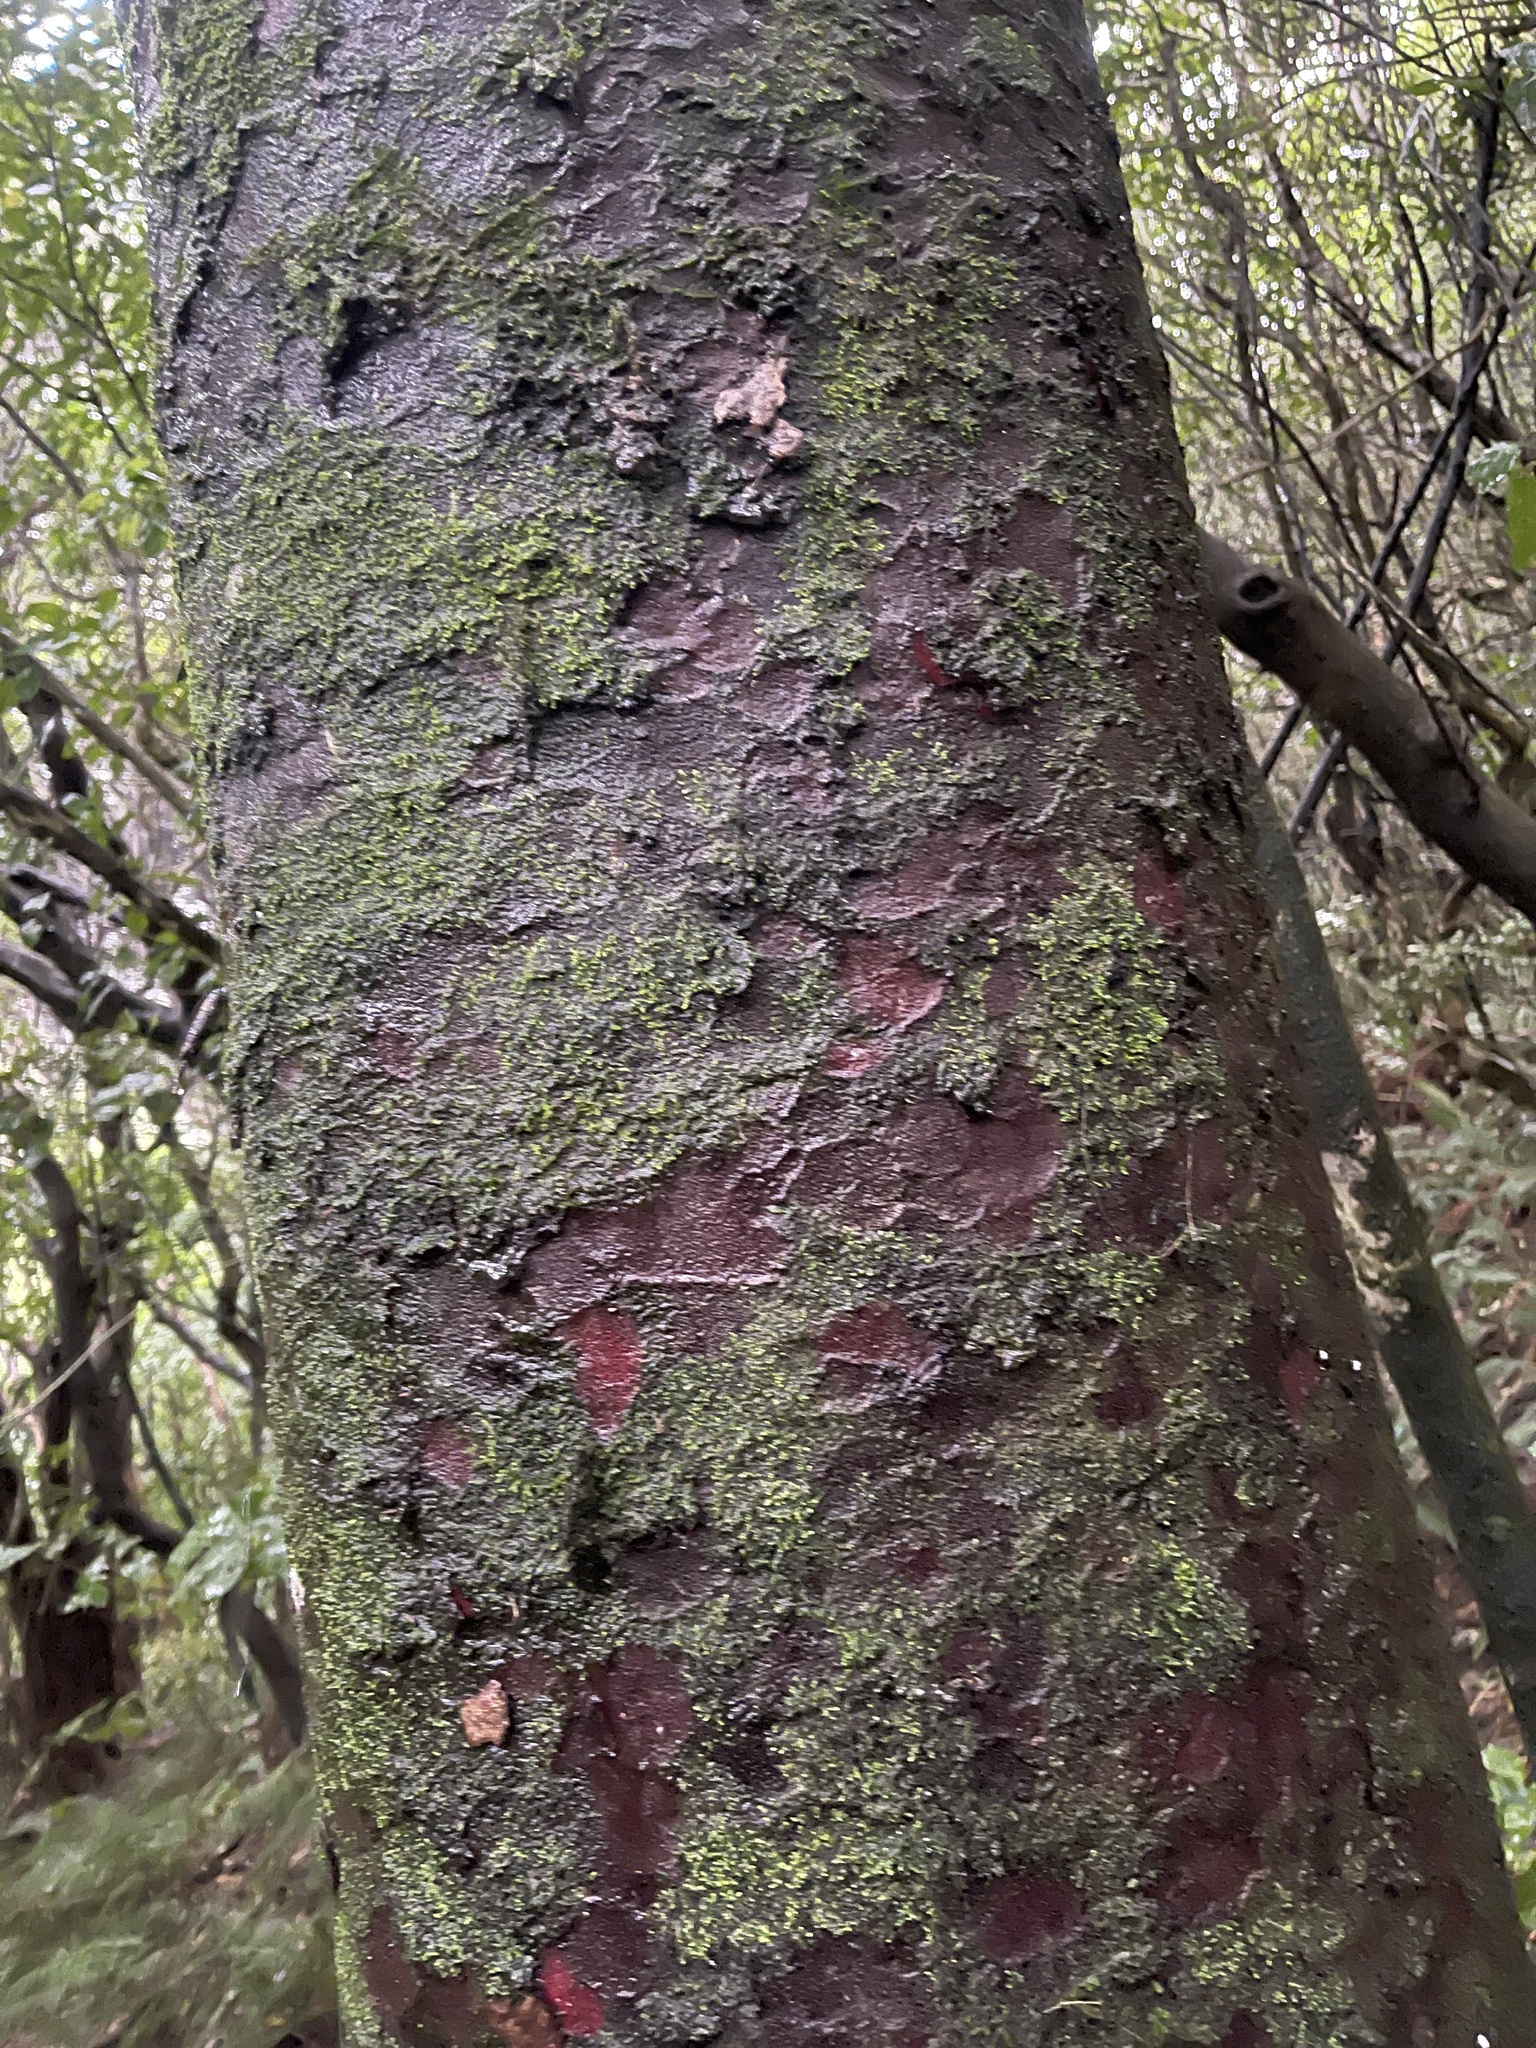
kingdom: Plantae
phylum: Tracheophyta
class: Pinopsida
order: Pinales
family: Podocarpaceae
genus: Prumnopitys
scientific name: Prumnopitys taxifolia
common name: Matai
